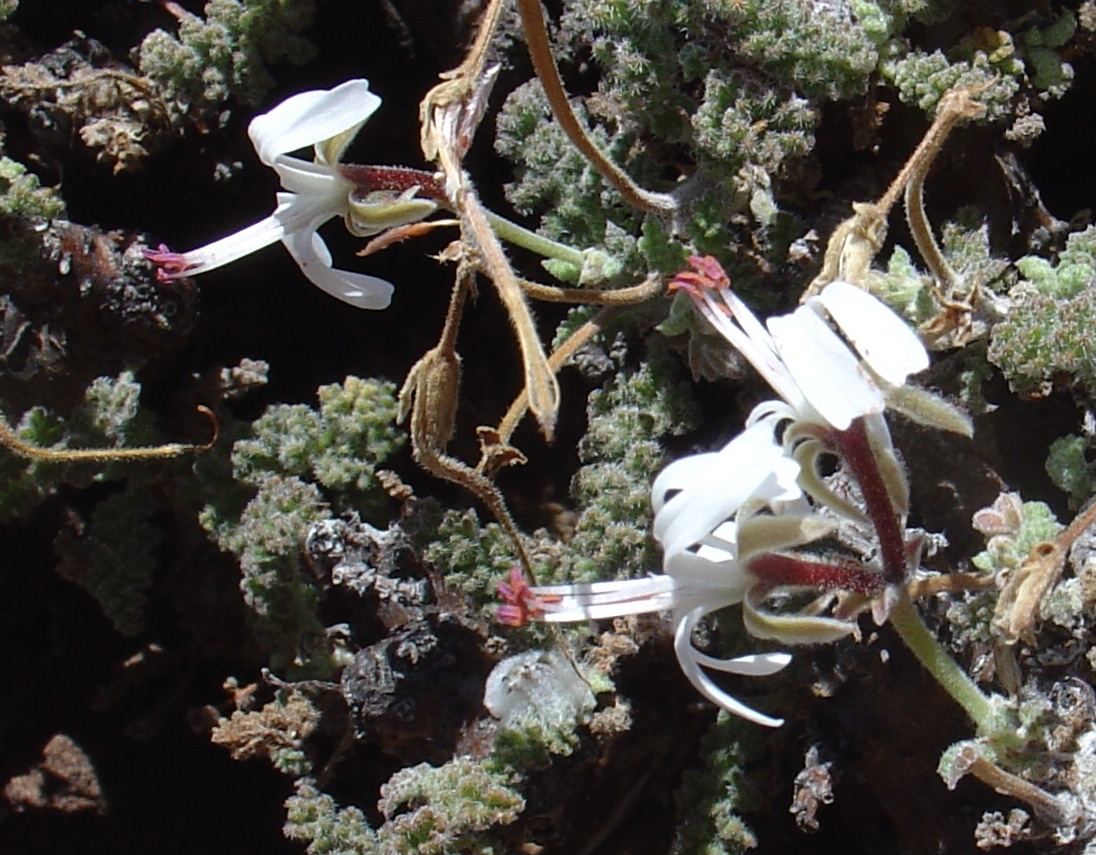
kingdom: Plantae
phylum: Tracheophyta
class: Magnoliopsida
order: Geraniales
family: Geraniaceae
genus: Pelargonium
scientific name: Pelargonium alternans
